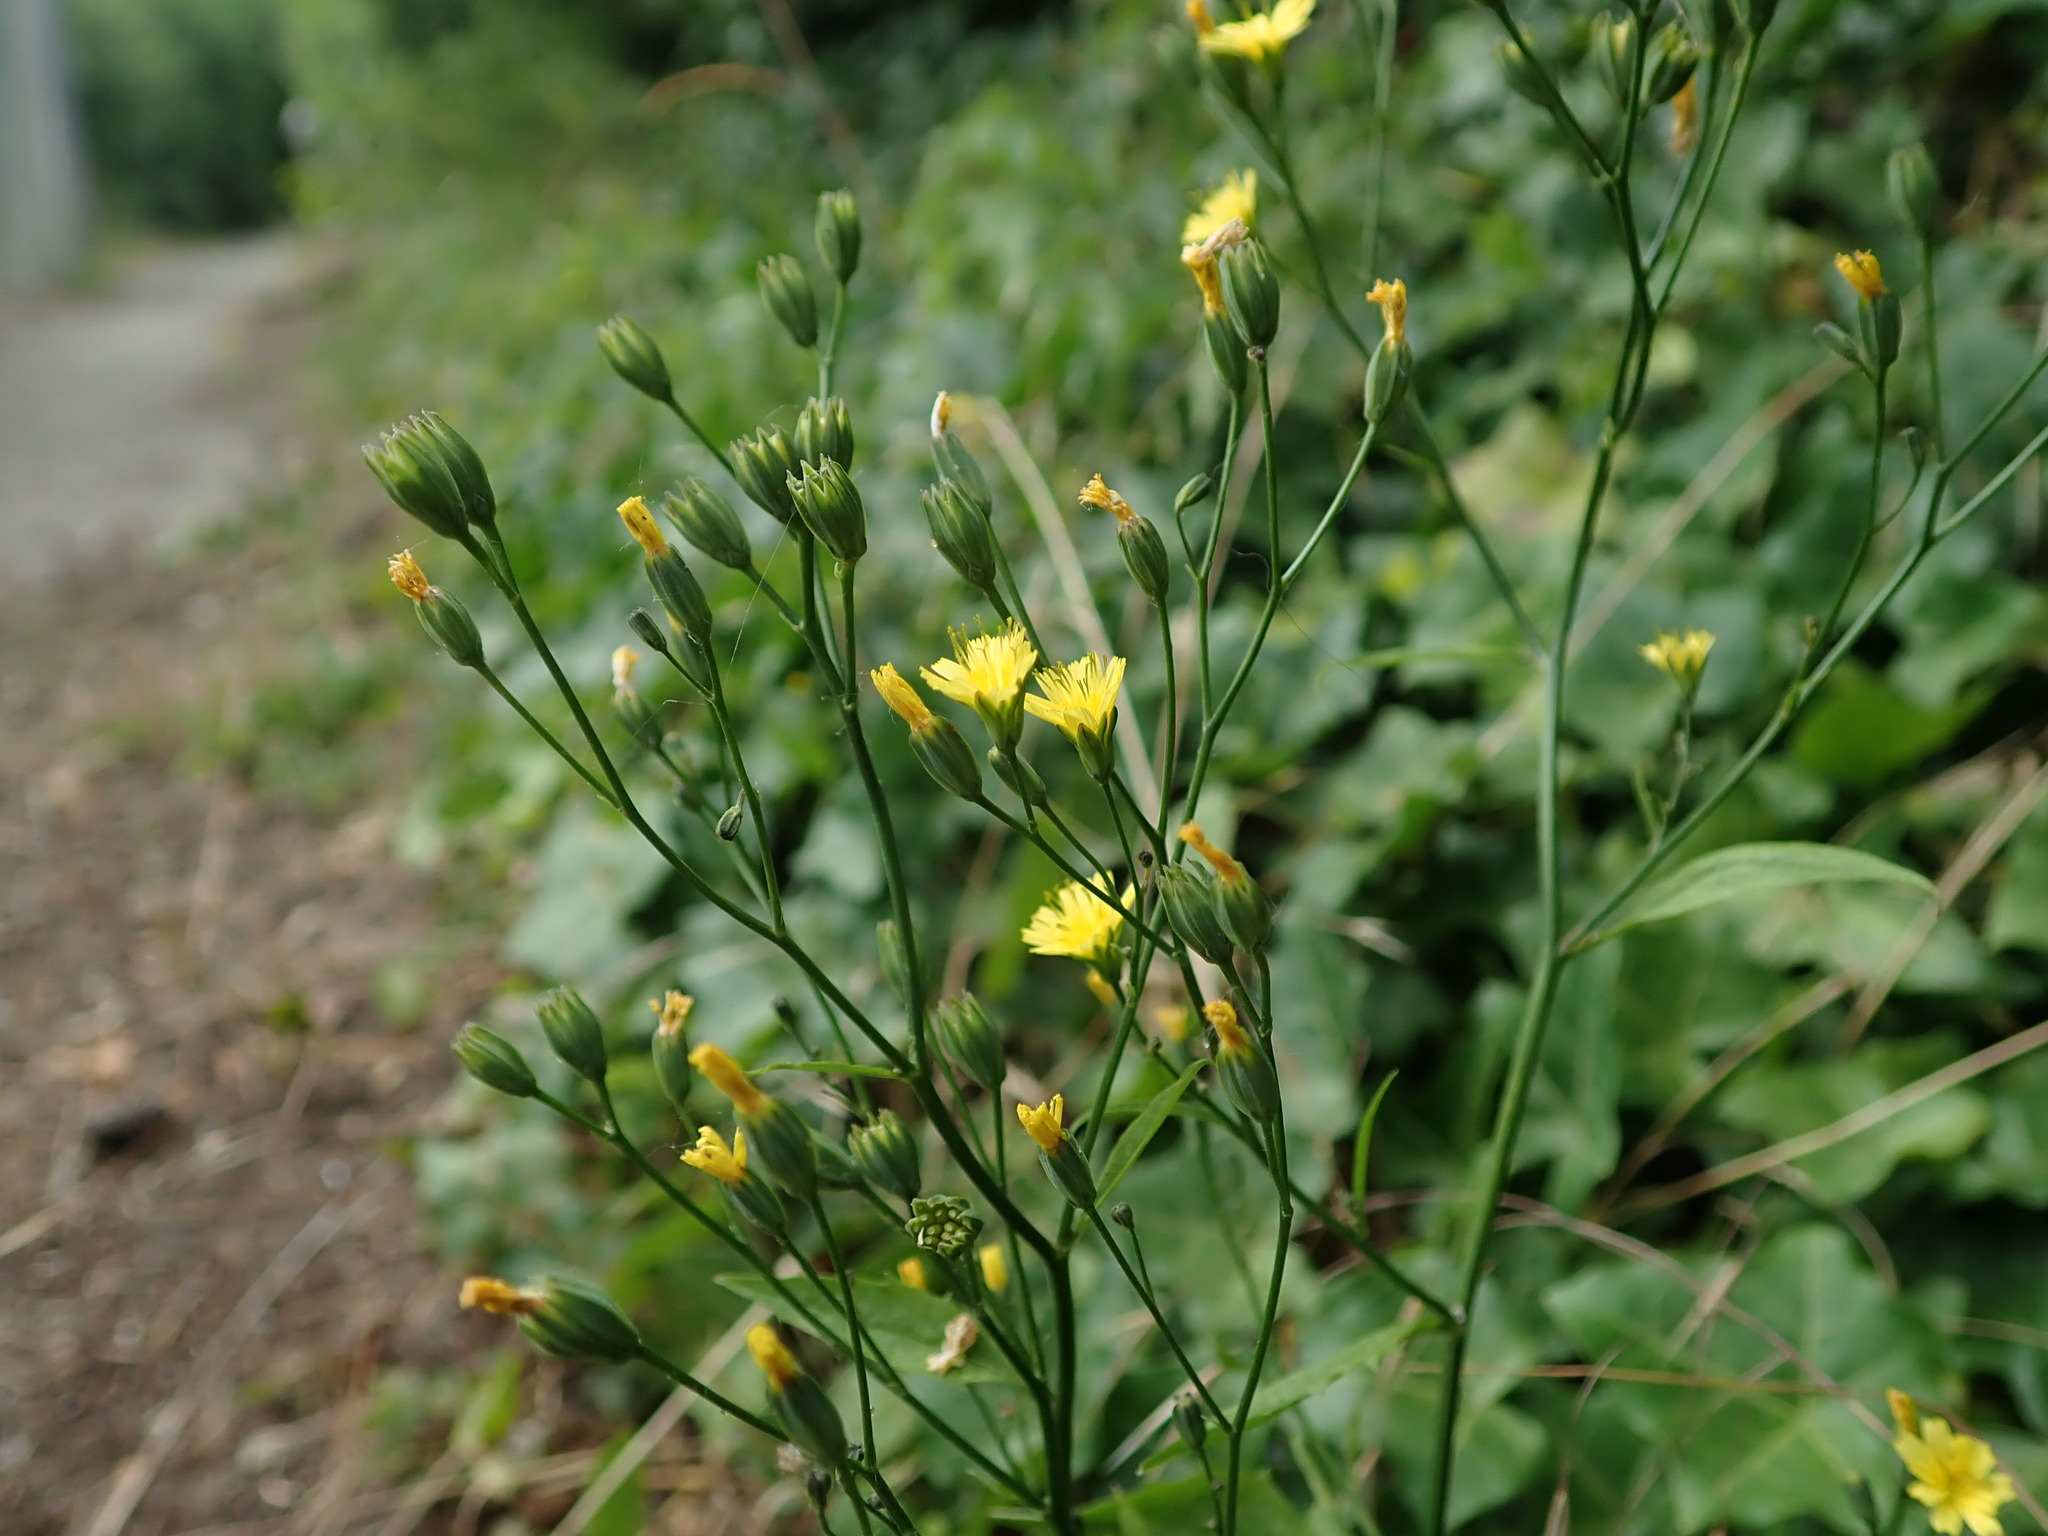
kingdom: Plantae
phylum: Tracheophyta
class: Magnoliopsida
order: Asterales
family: Asteraceae
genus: Lapsana
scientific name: Lapsana communis
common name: Nipplewort
